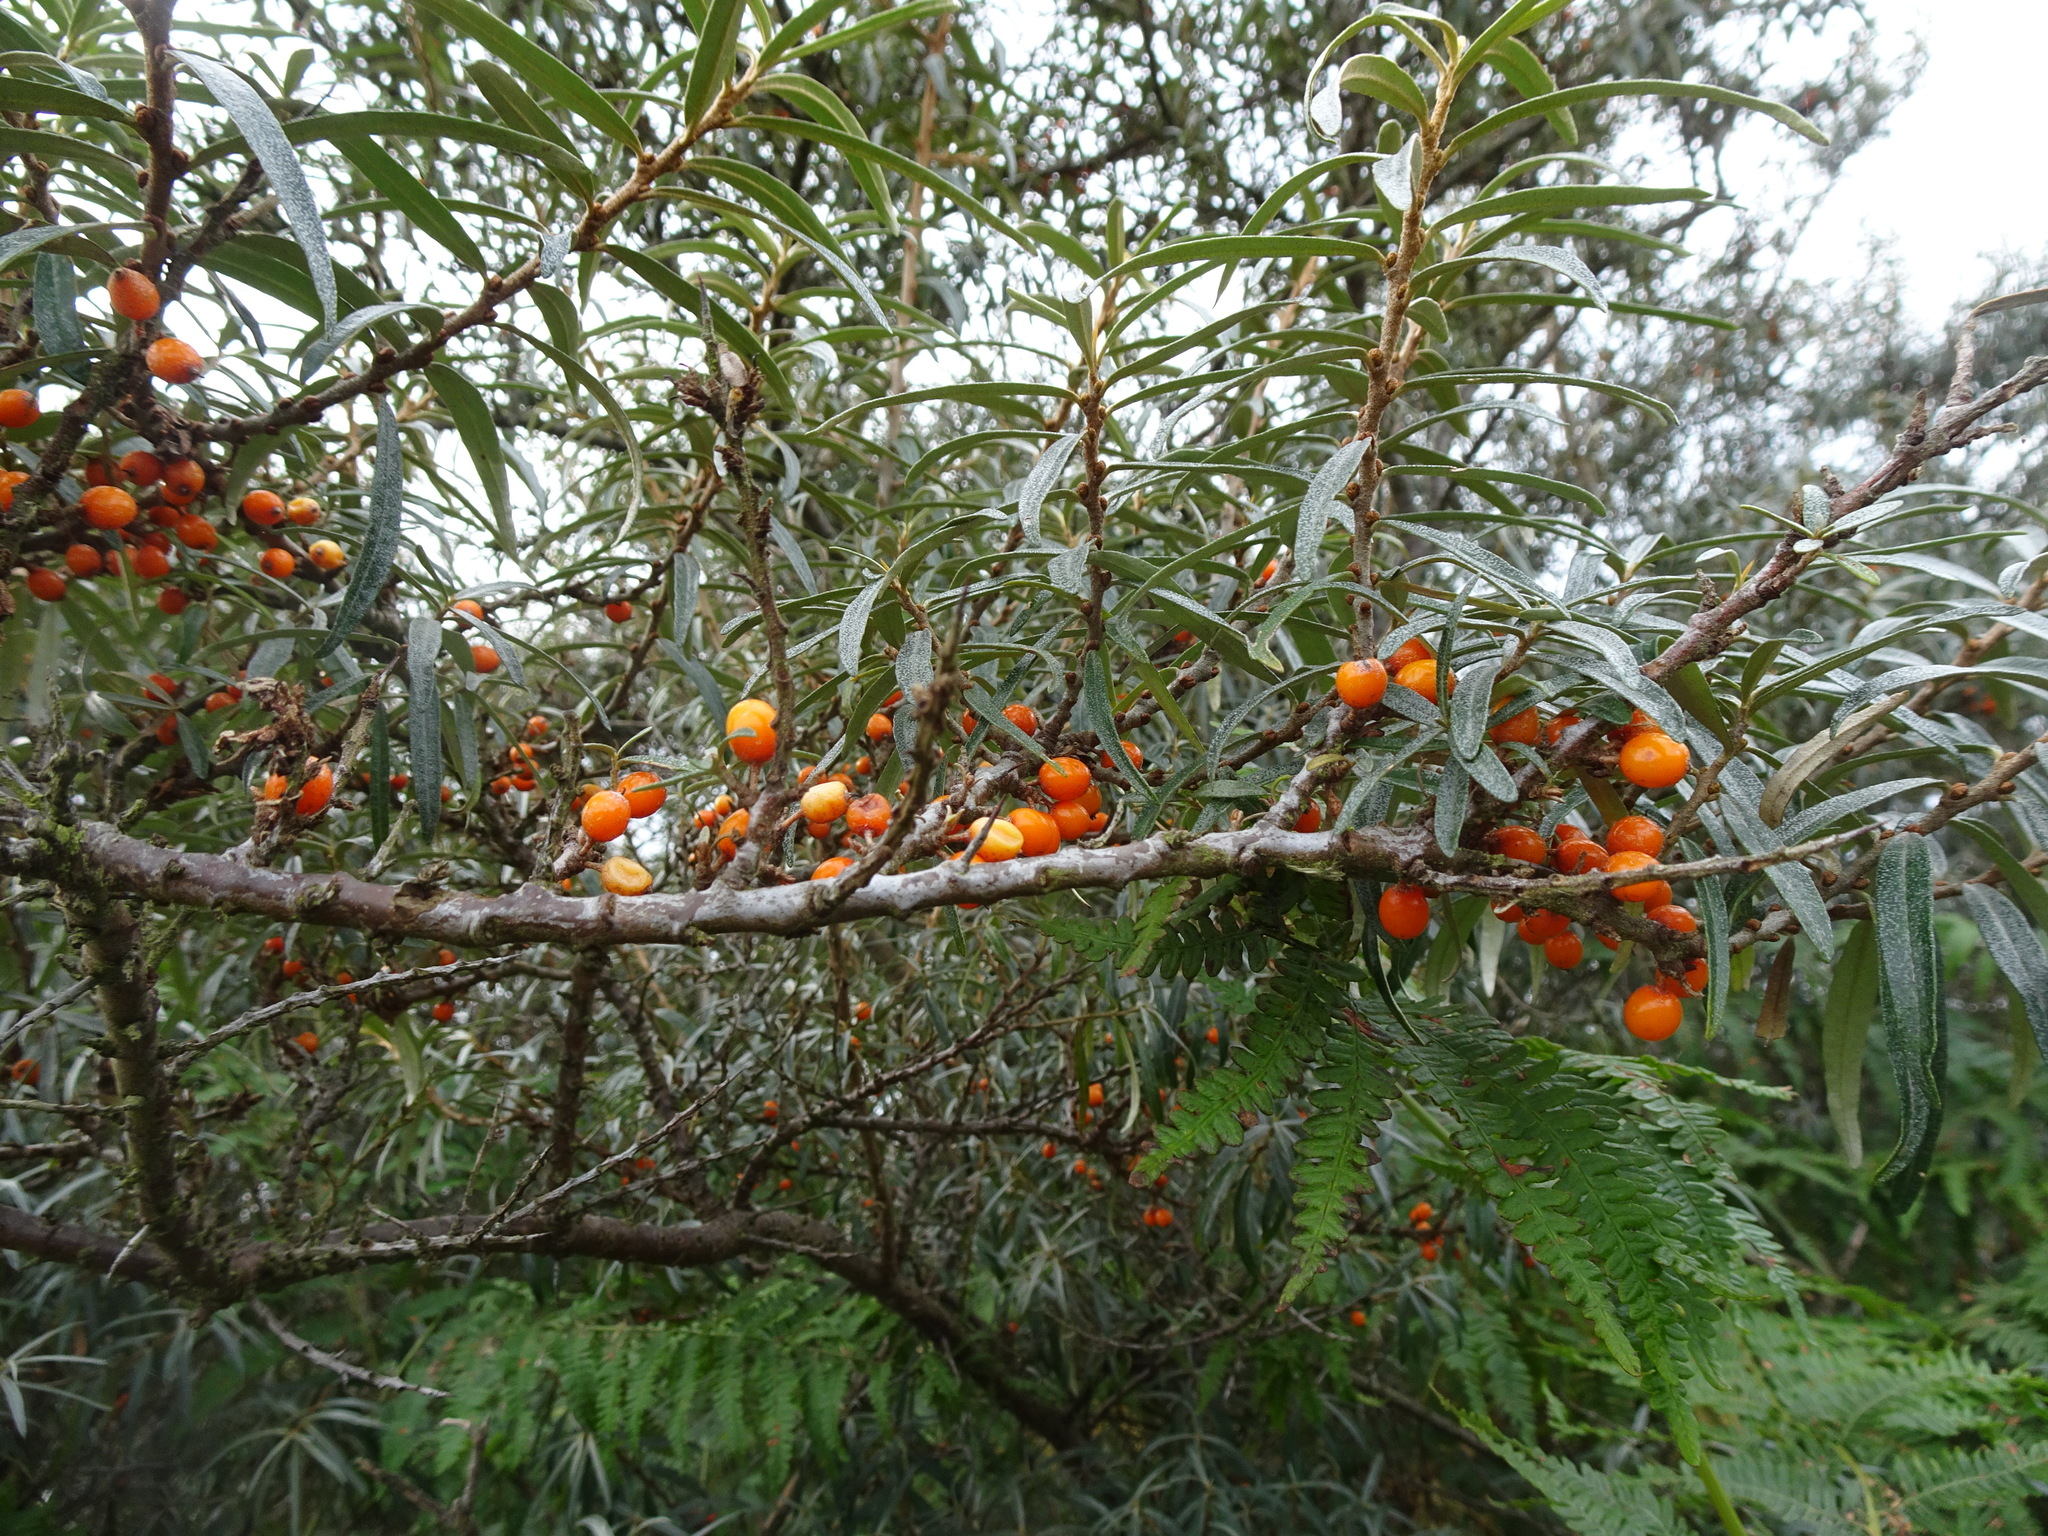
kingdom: Plantae
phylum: Tracheophyta
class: Magnoliopsida
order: Rosales
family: Elaeagnaceae
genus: Hippophae
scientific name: Hippophae rhamnoides
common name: Sea-buckthorn
